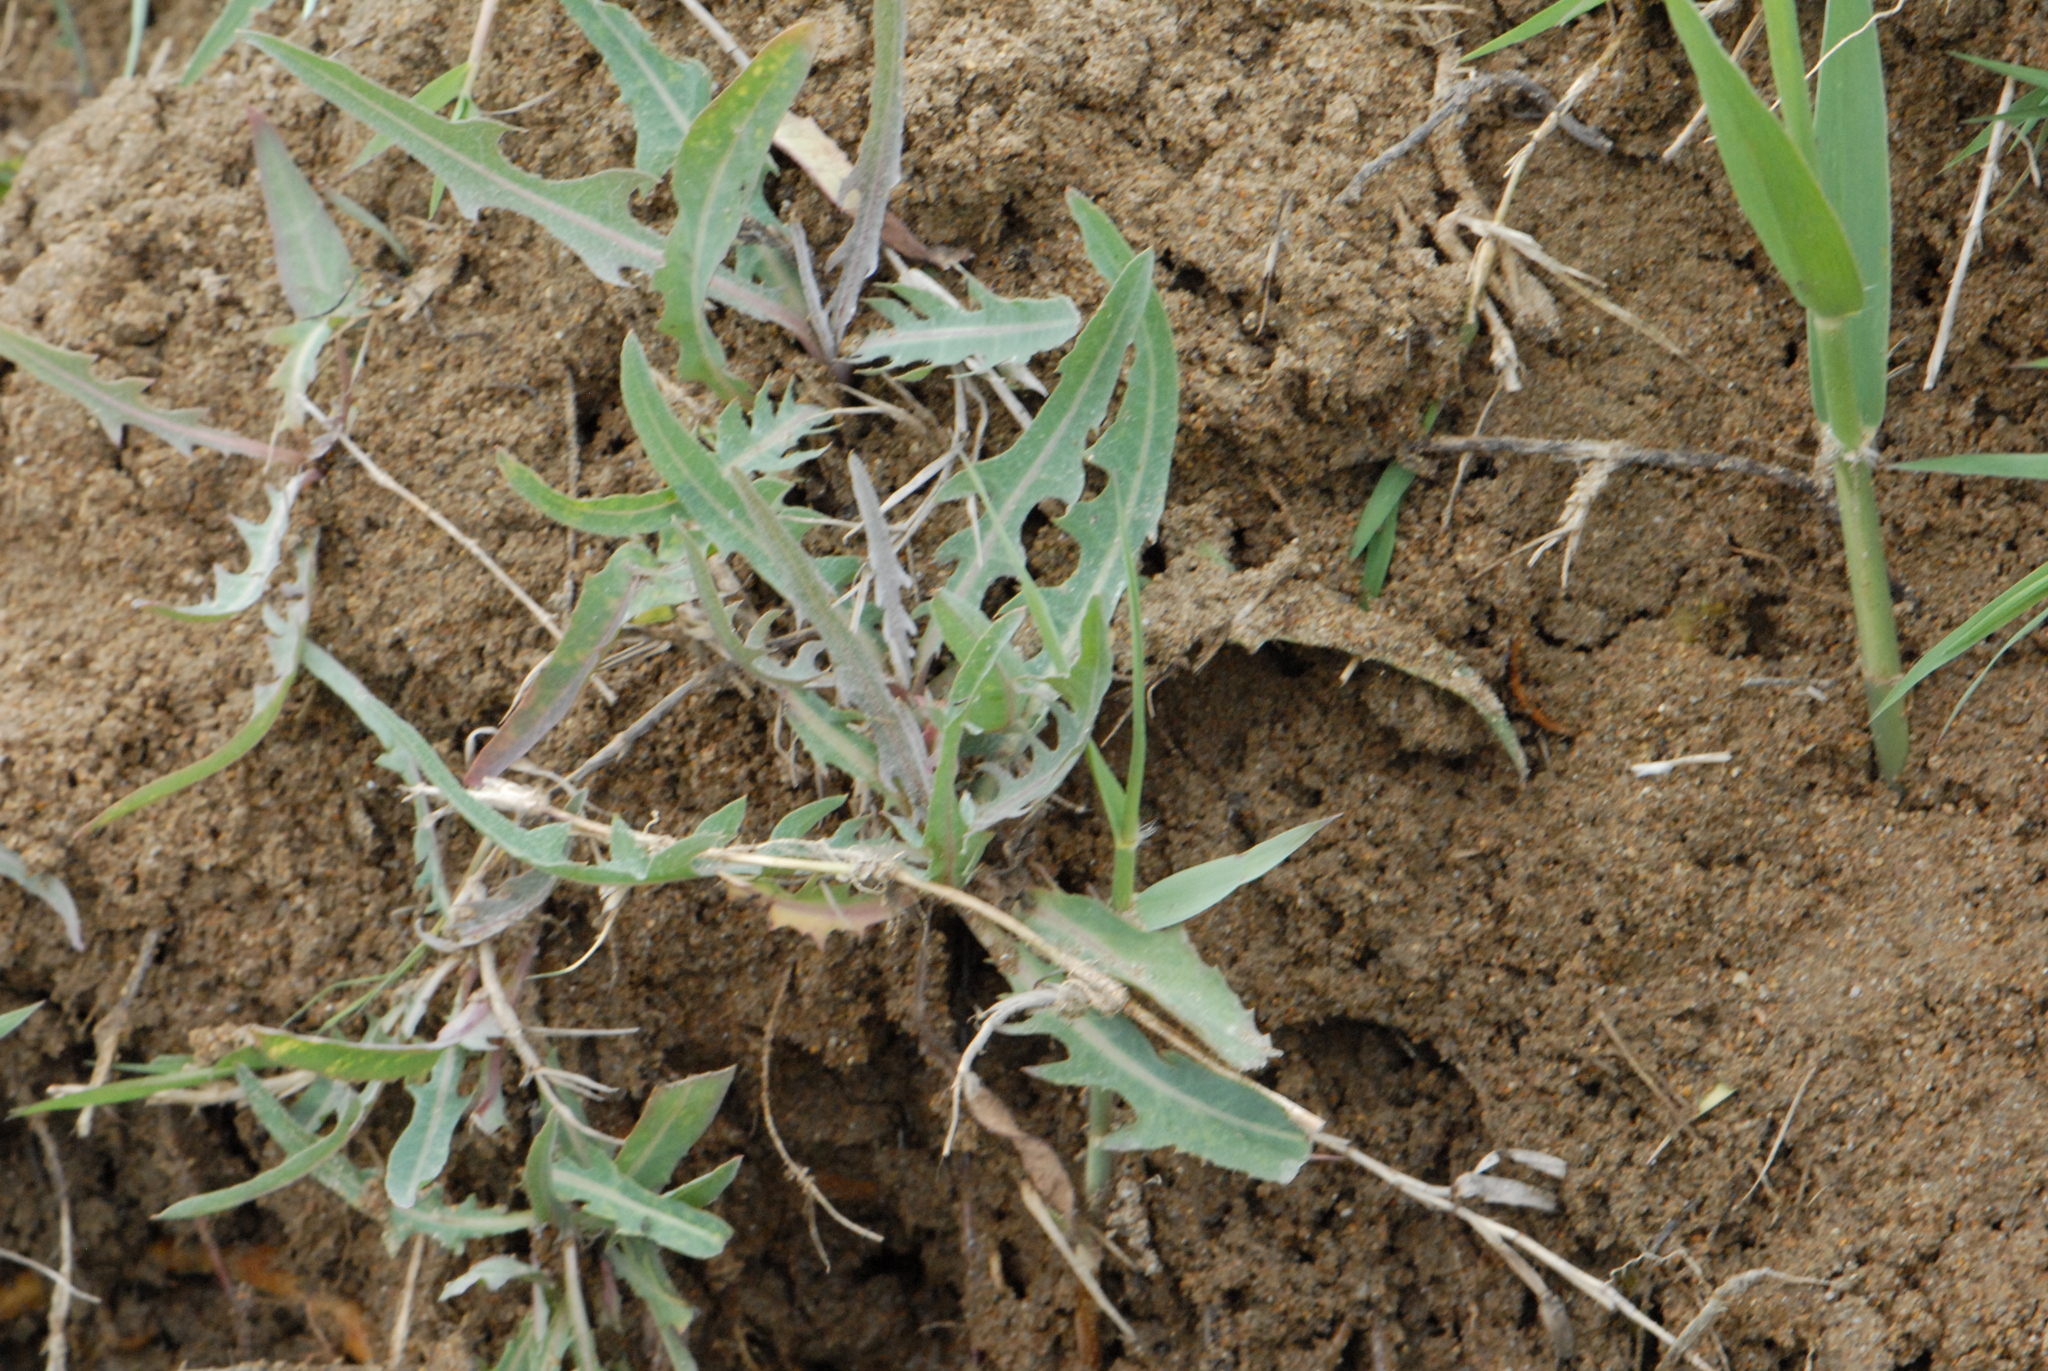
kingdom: Plantae
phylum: Tracheophyta
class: Magnoliopsida
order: Asterales
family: Asteraceae
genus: Lactuca
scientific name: Lactuca tatarica
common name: Blue lettuce
